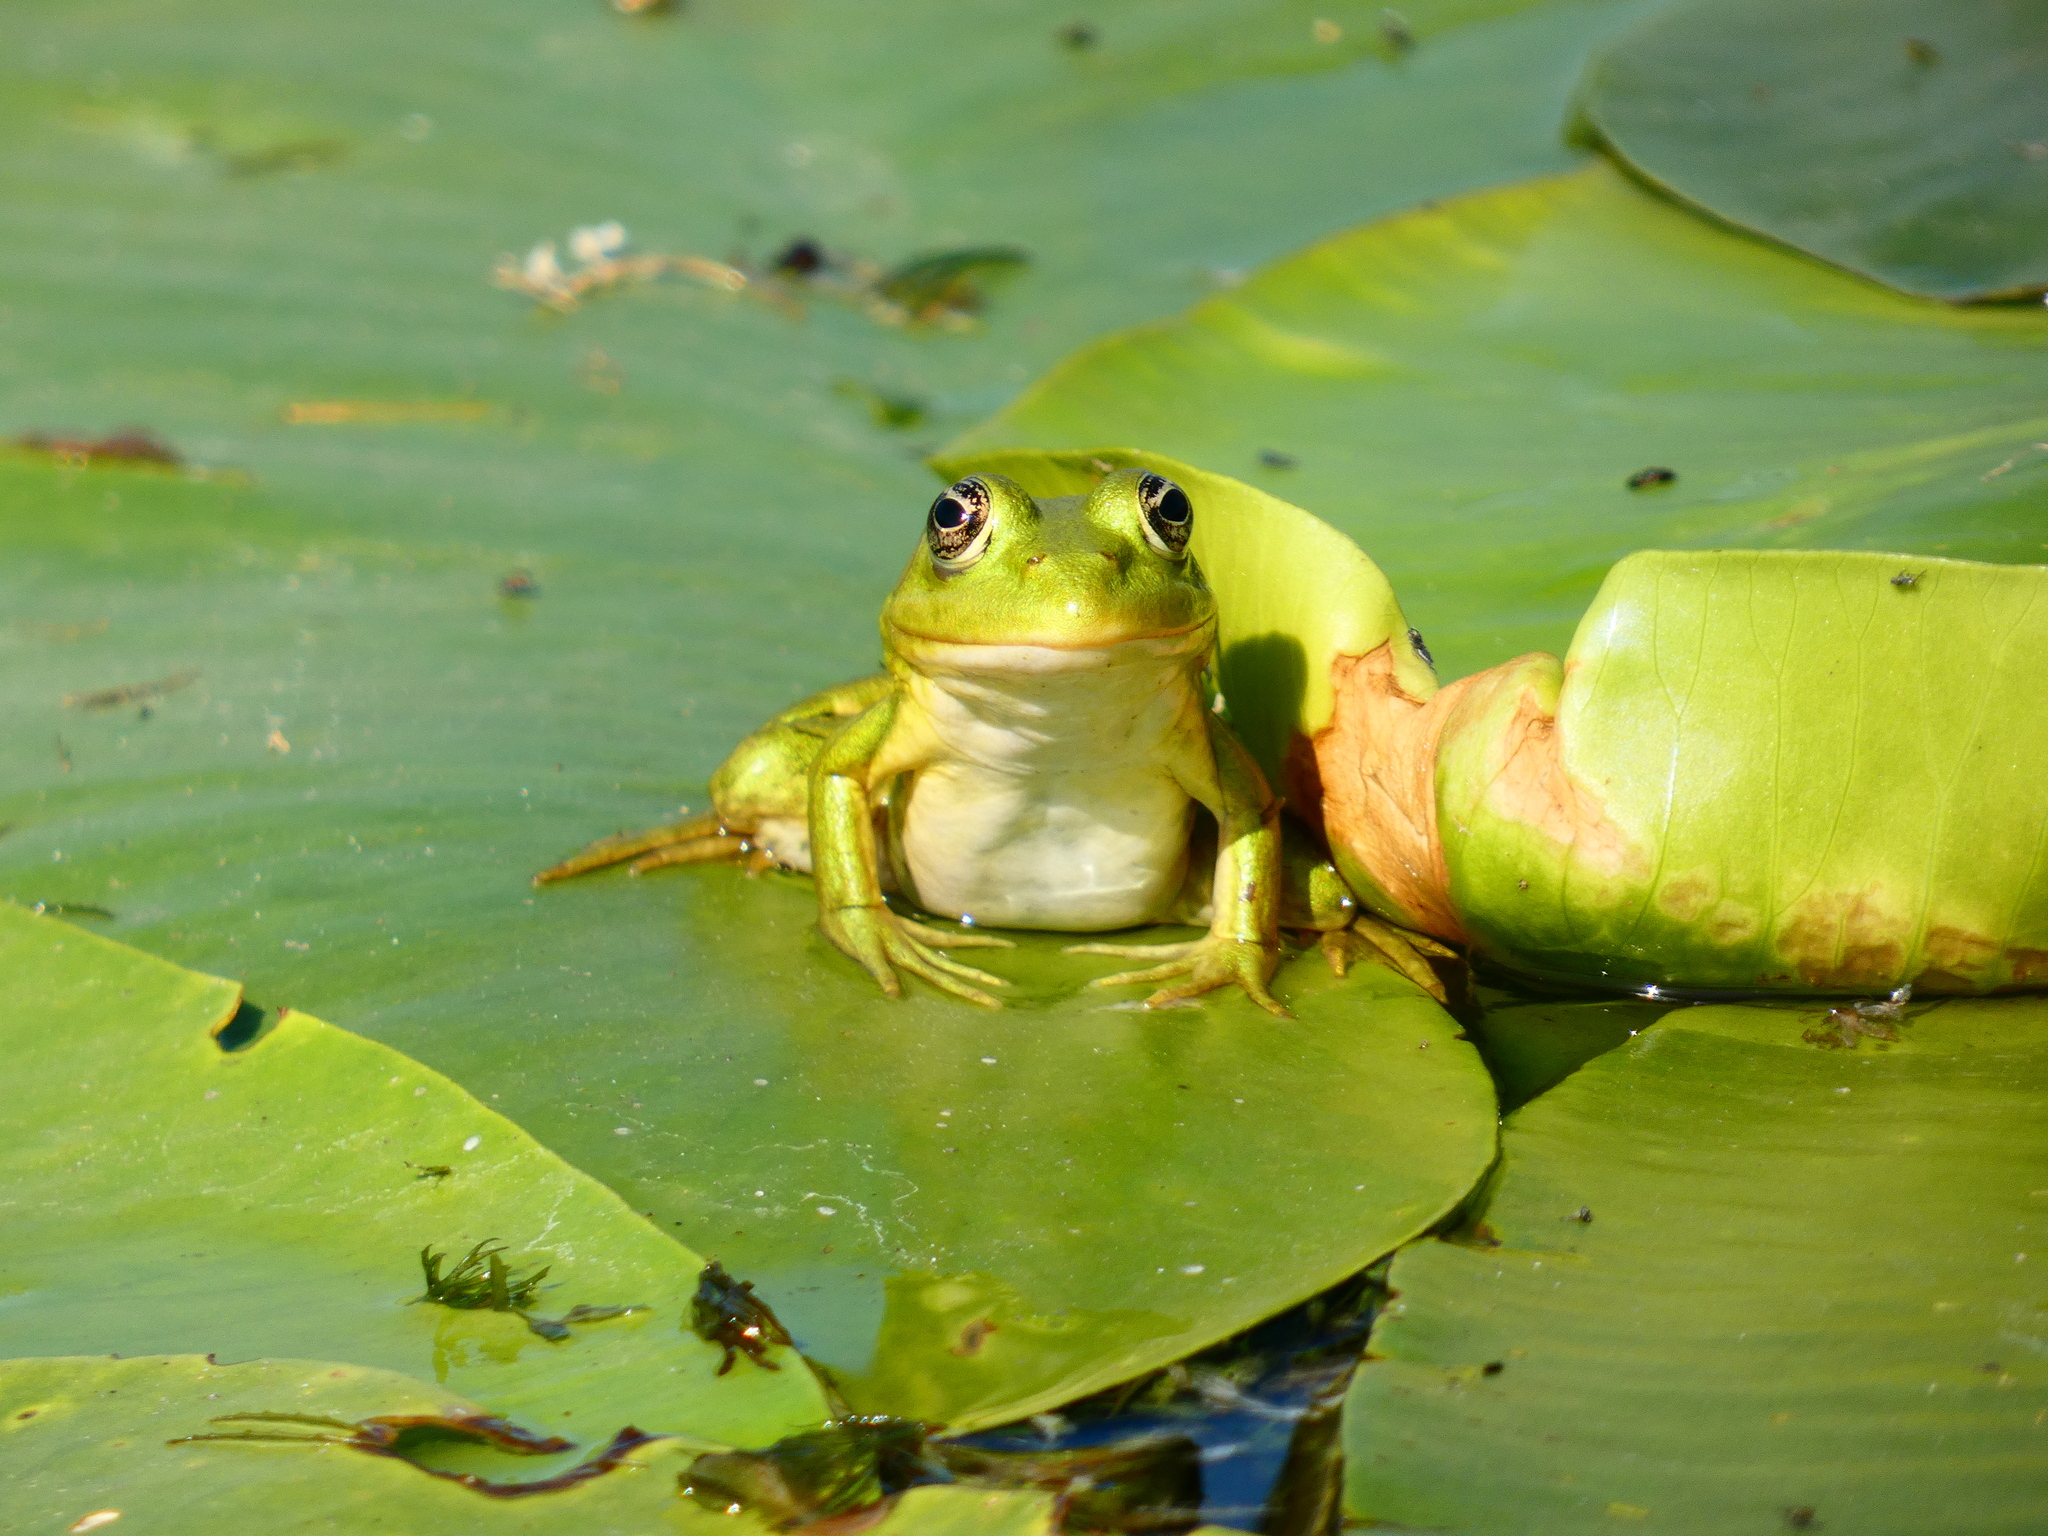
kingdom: Animalia
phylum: Chordata
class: Amphibia
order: Anura
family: Ranidae
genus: Pelophylax
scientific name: Pelophylax ridibundus
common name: Marsh frog
